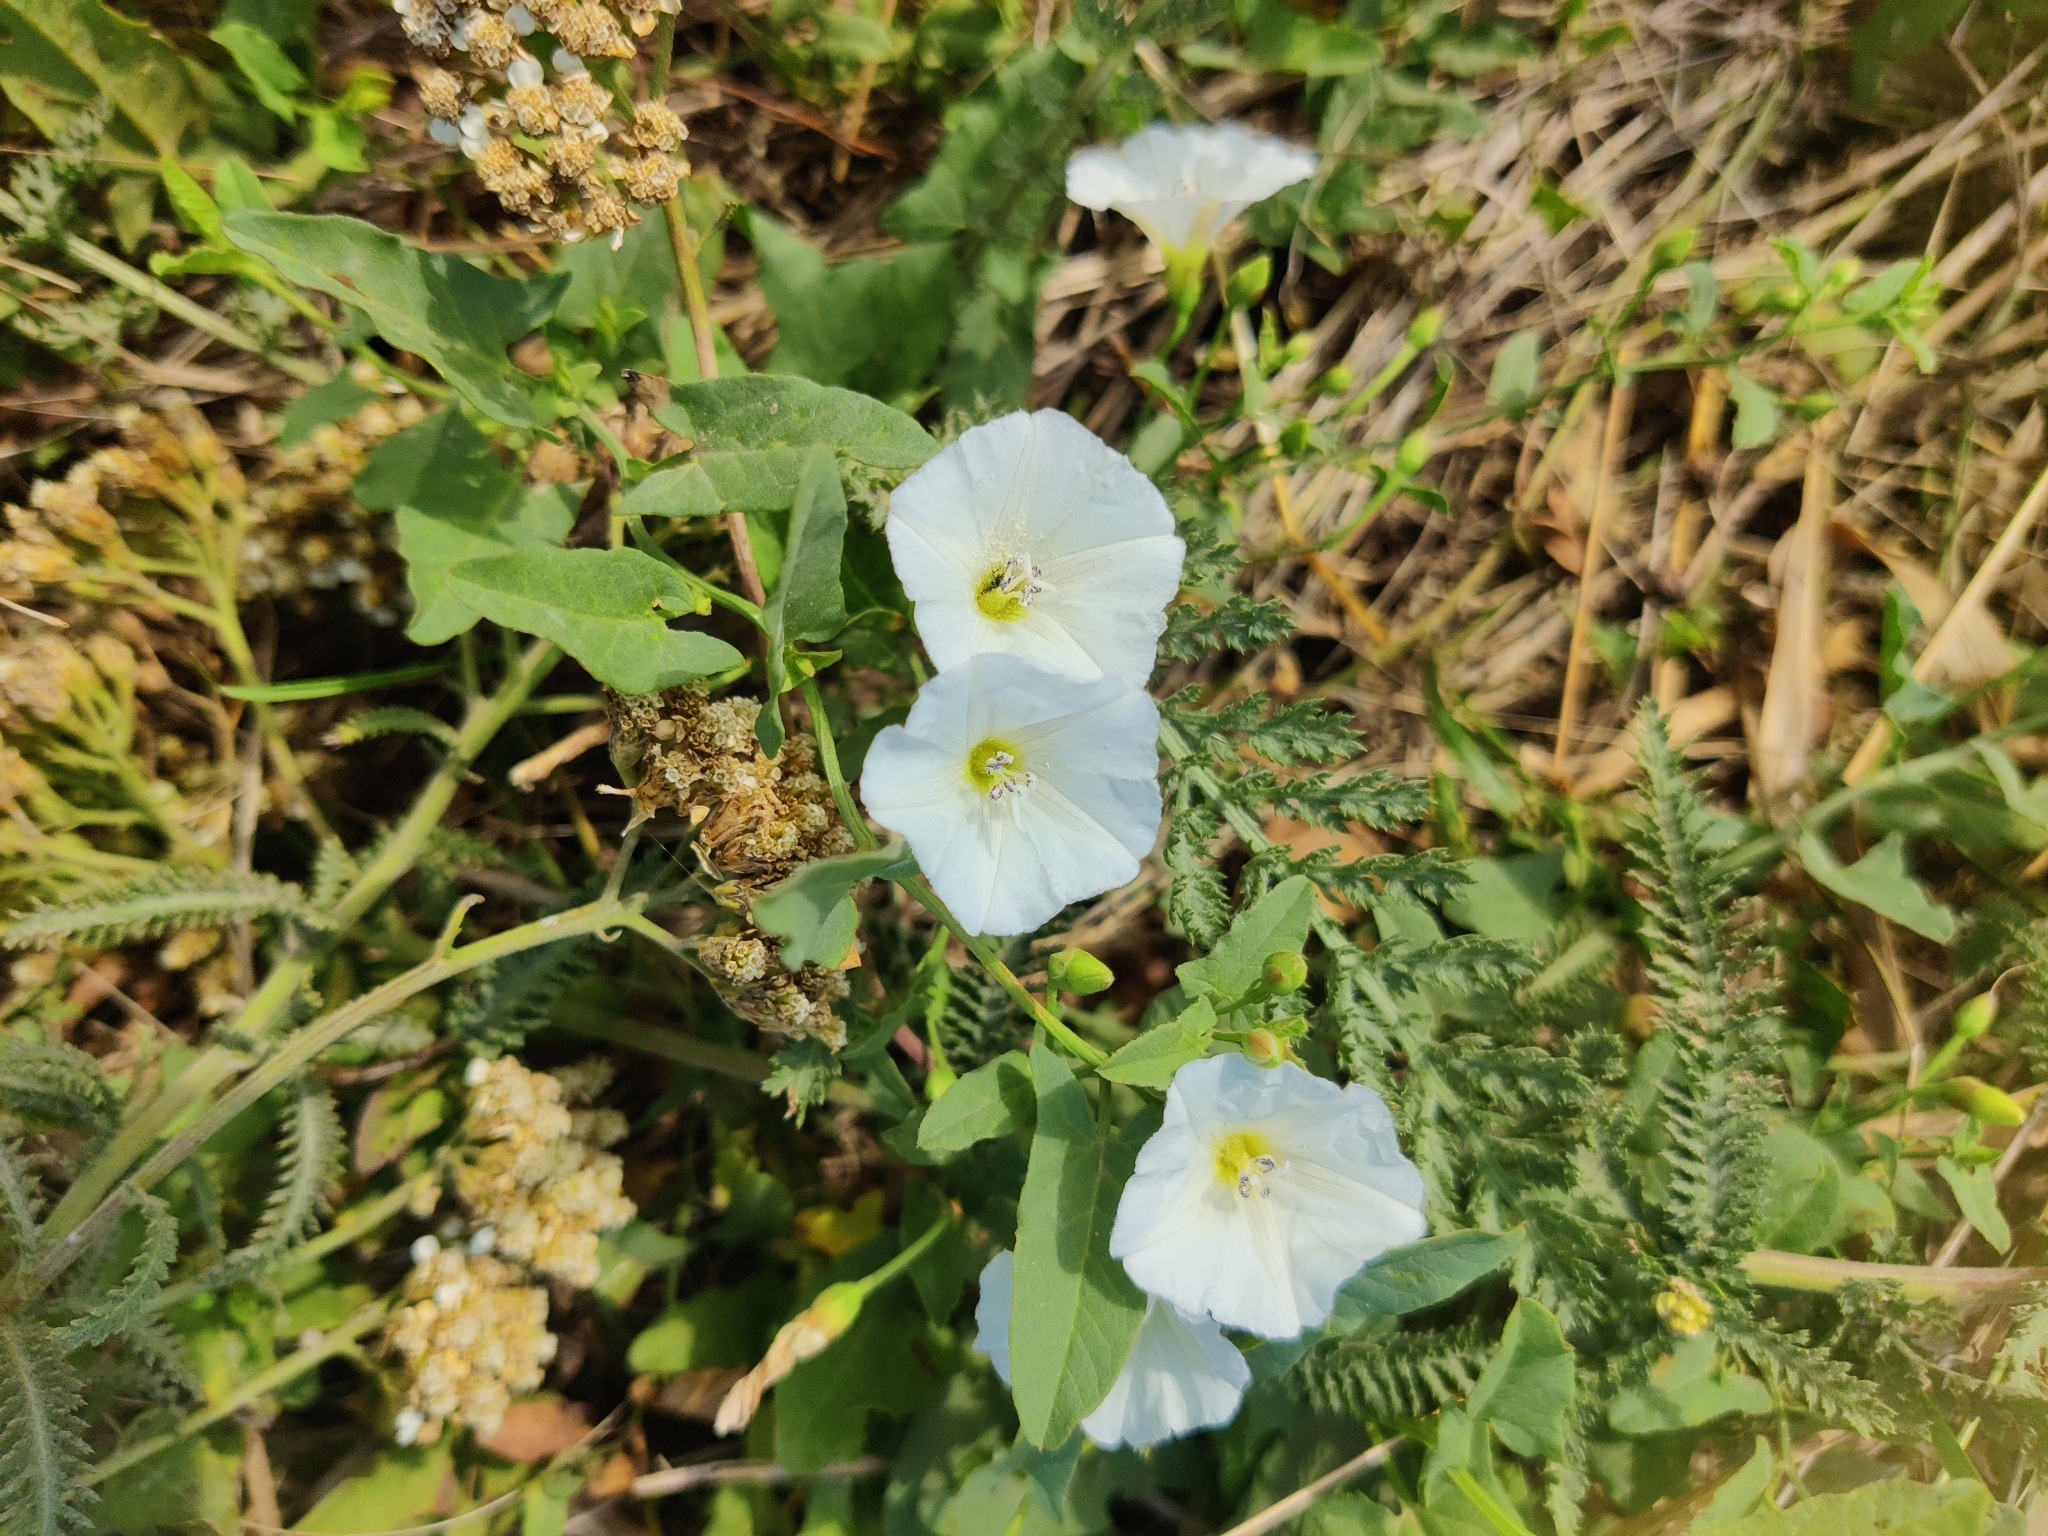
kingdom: Plantae
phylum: Tracheophyta
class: Magnoliopsida
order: Solanales
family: Convolvulaceae
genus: Convolvulus
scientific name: Convolvulus arvensis
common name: Field bindweed
